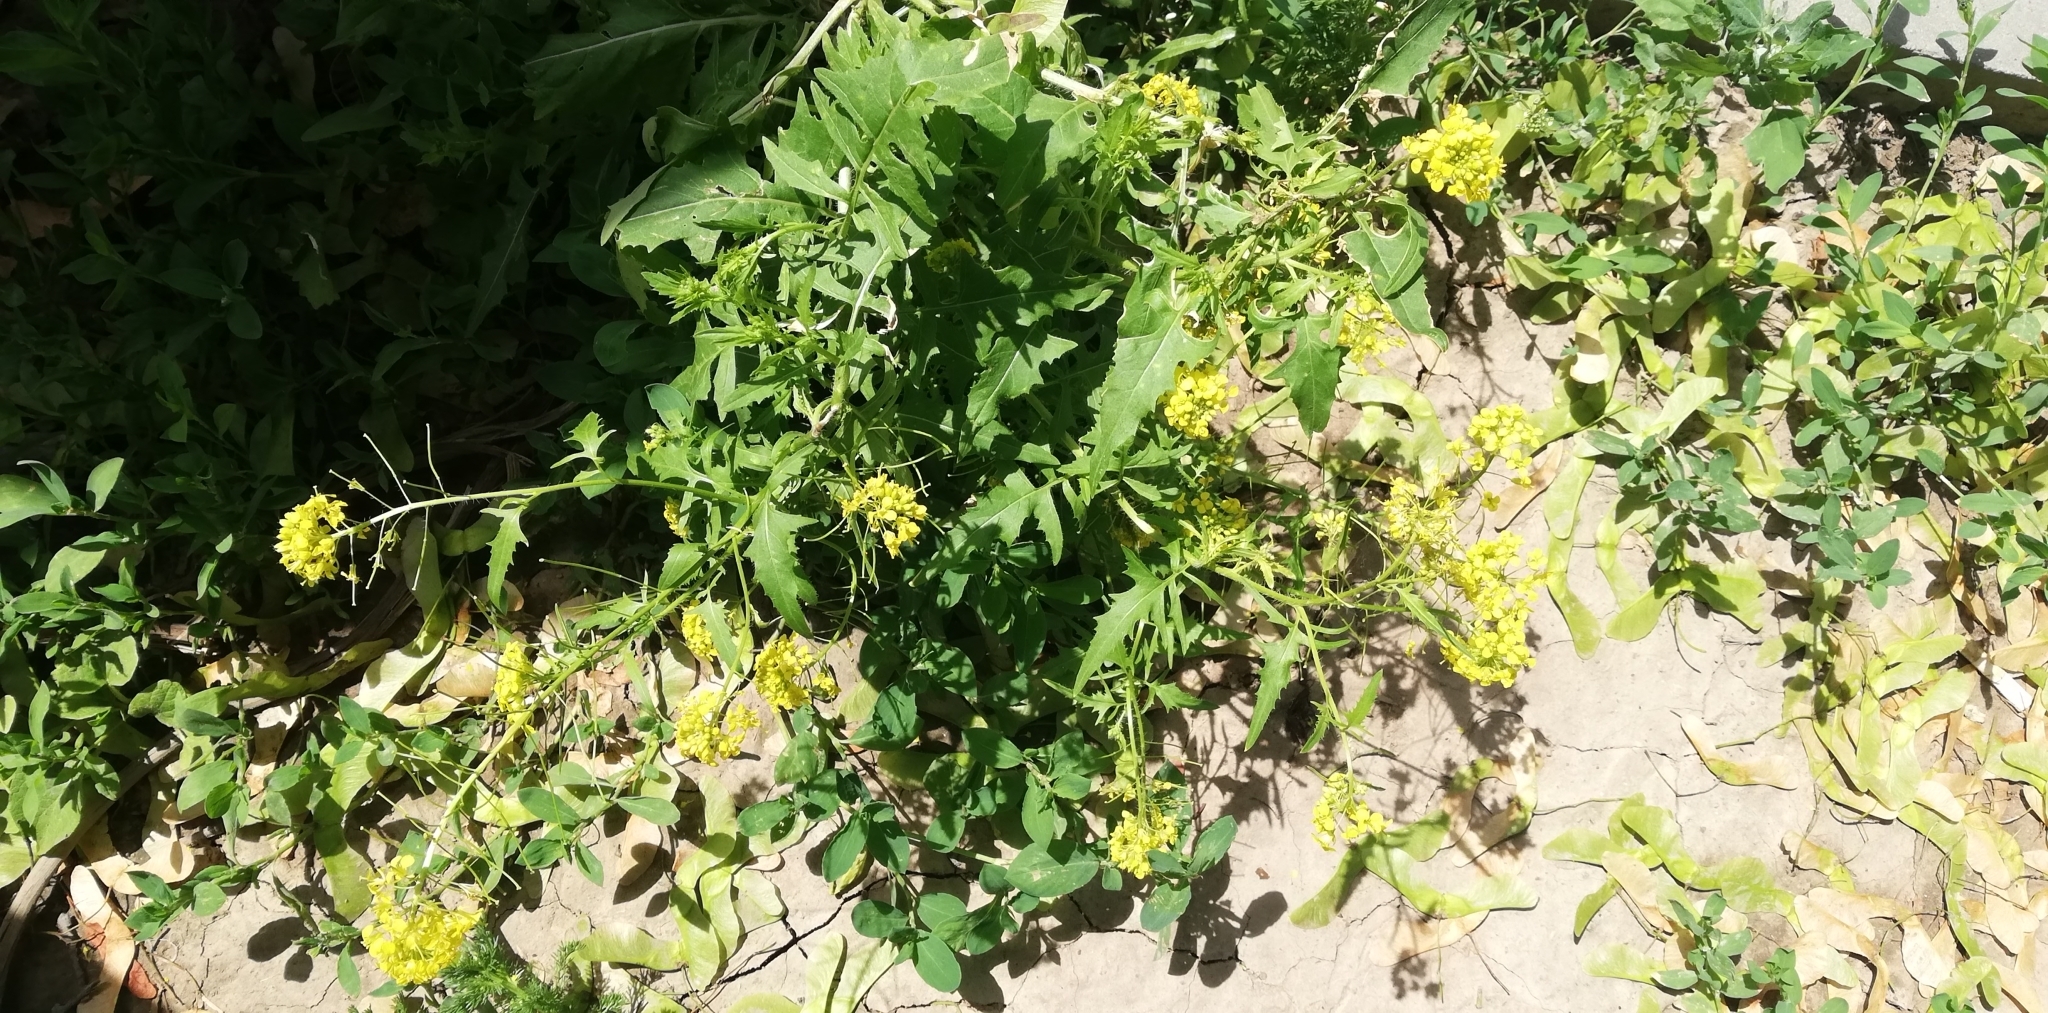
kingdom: Plantae
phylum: Tracheophyta
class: Magnoliopsida
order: Brassicales
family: Brassicaceae
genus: Sisymbrium
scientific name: Sisymbrium loeselii
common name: False london-rocket
